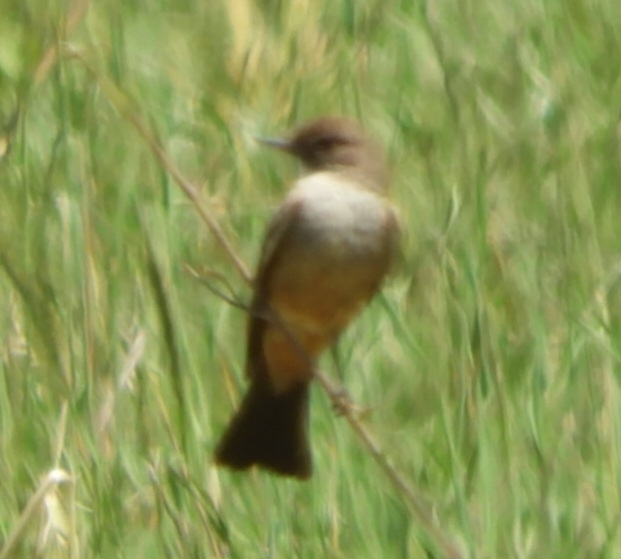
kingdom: Animalia
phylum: Chordata
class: Aves
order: Passeriformes
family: Tyrannidae
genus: Sayornis
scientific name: Sayornis saya
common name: Say's phoebe
